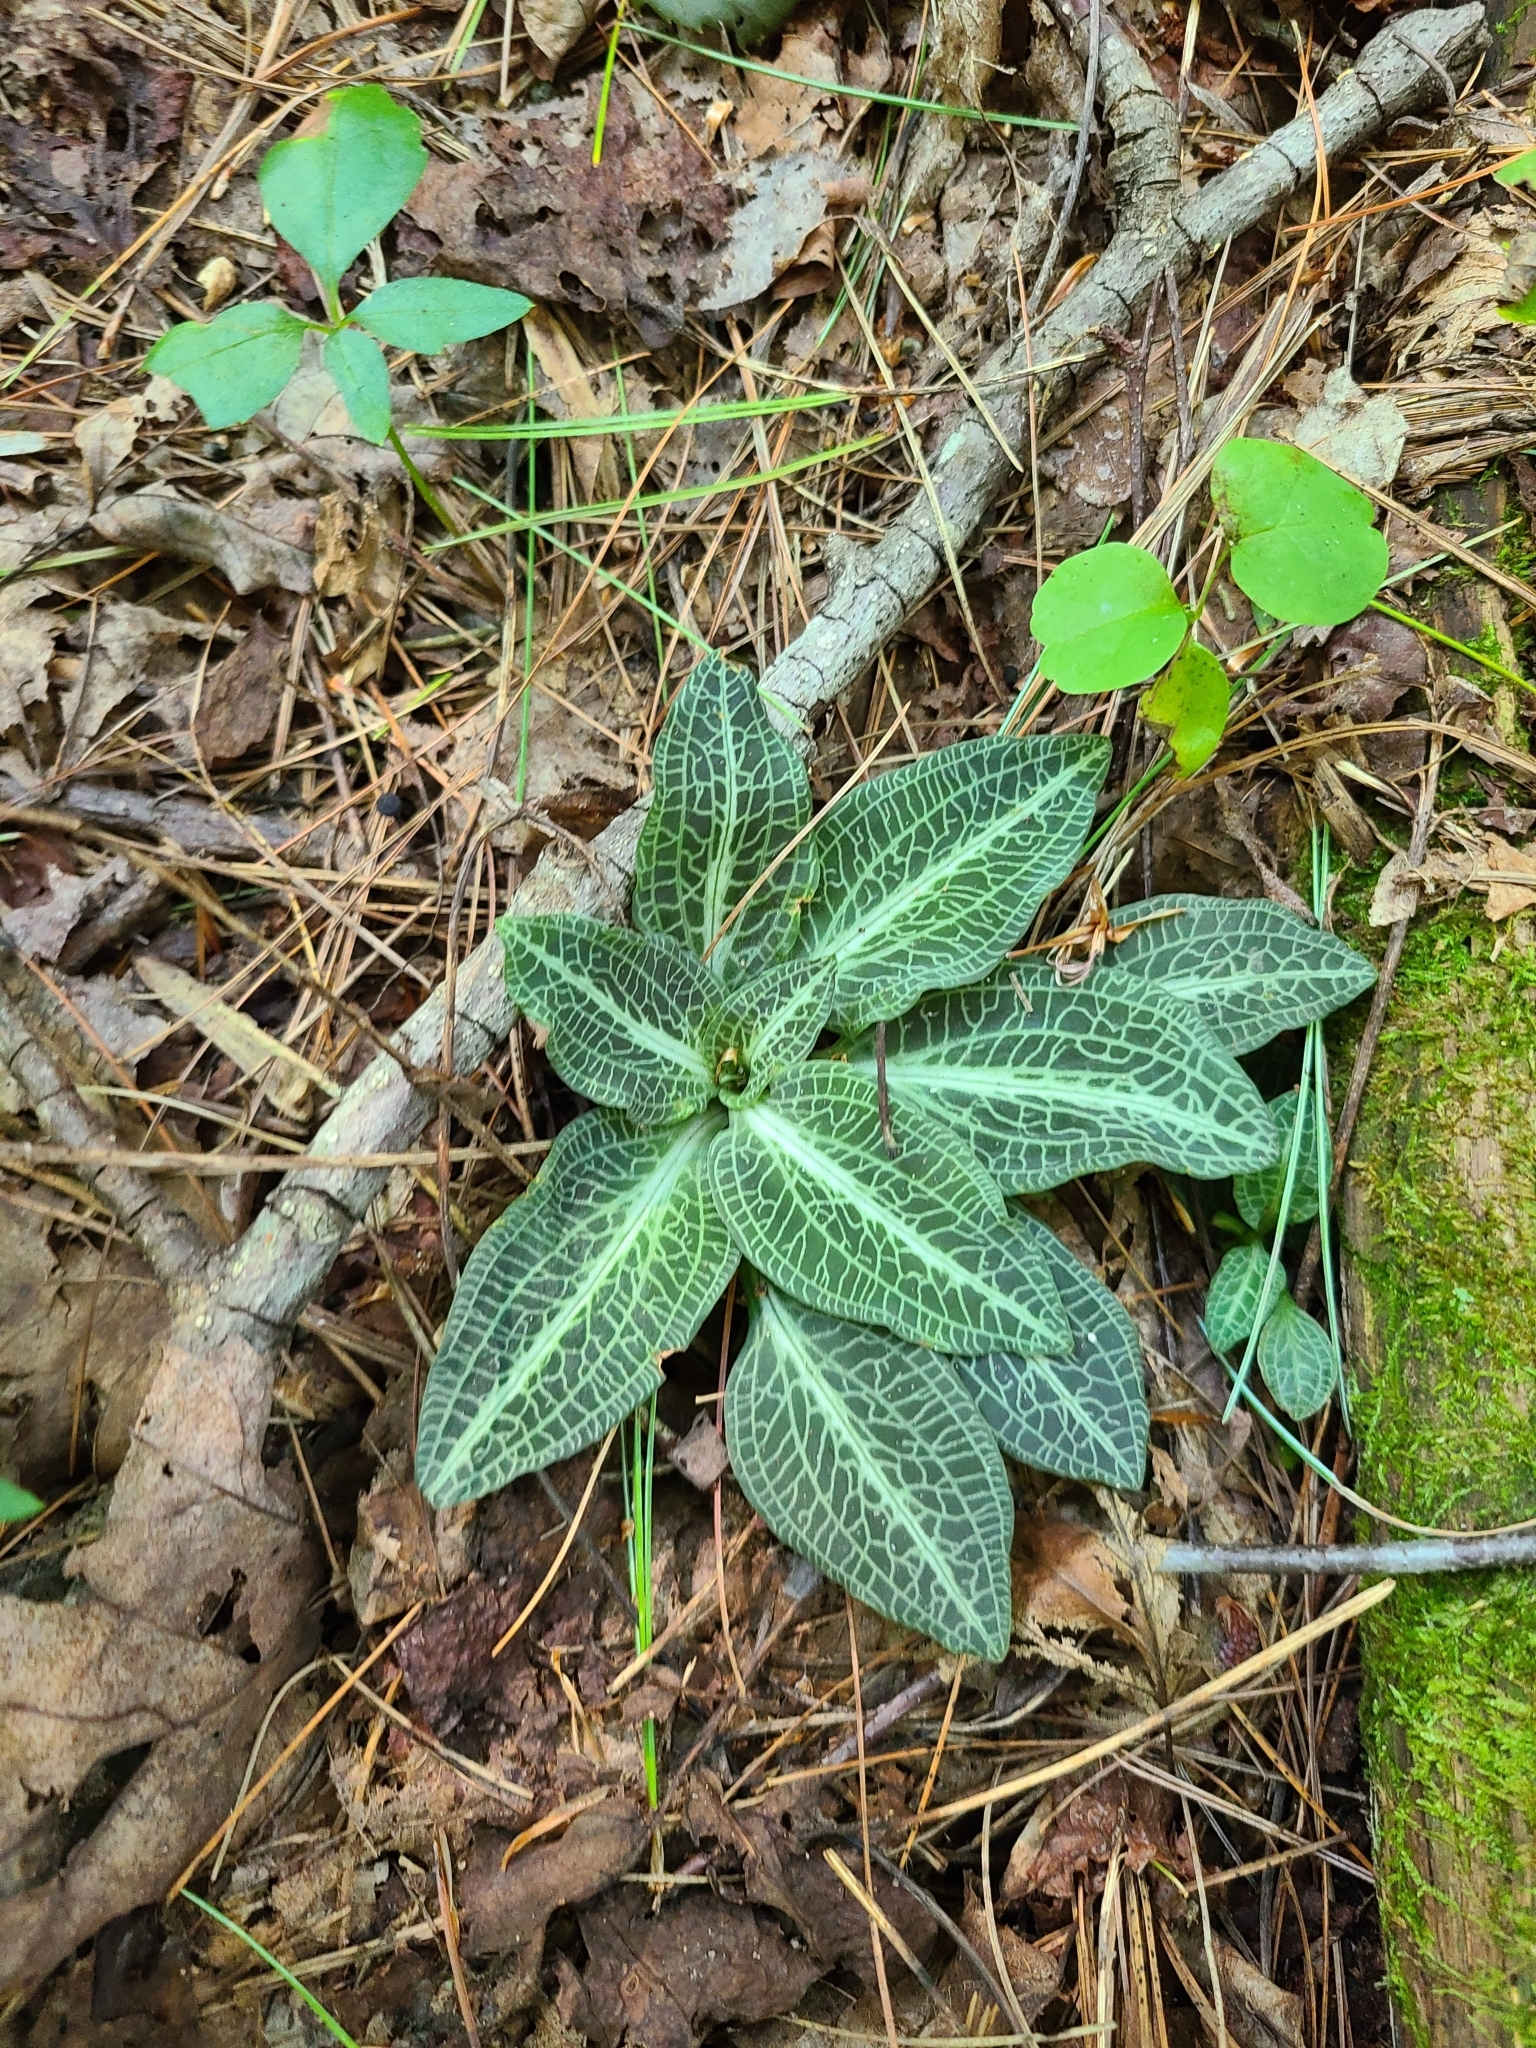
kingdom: Plantae
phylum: Tracheophyta
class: Liliopsida
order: Asparagales
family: Orchidaceae
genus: Goodyera
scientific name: Goodyera pubescens
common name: Downy rattlesnake-plantain
